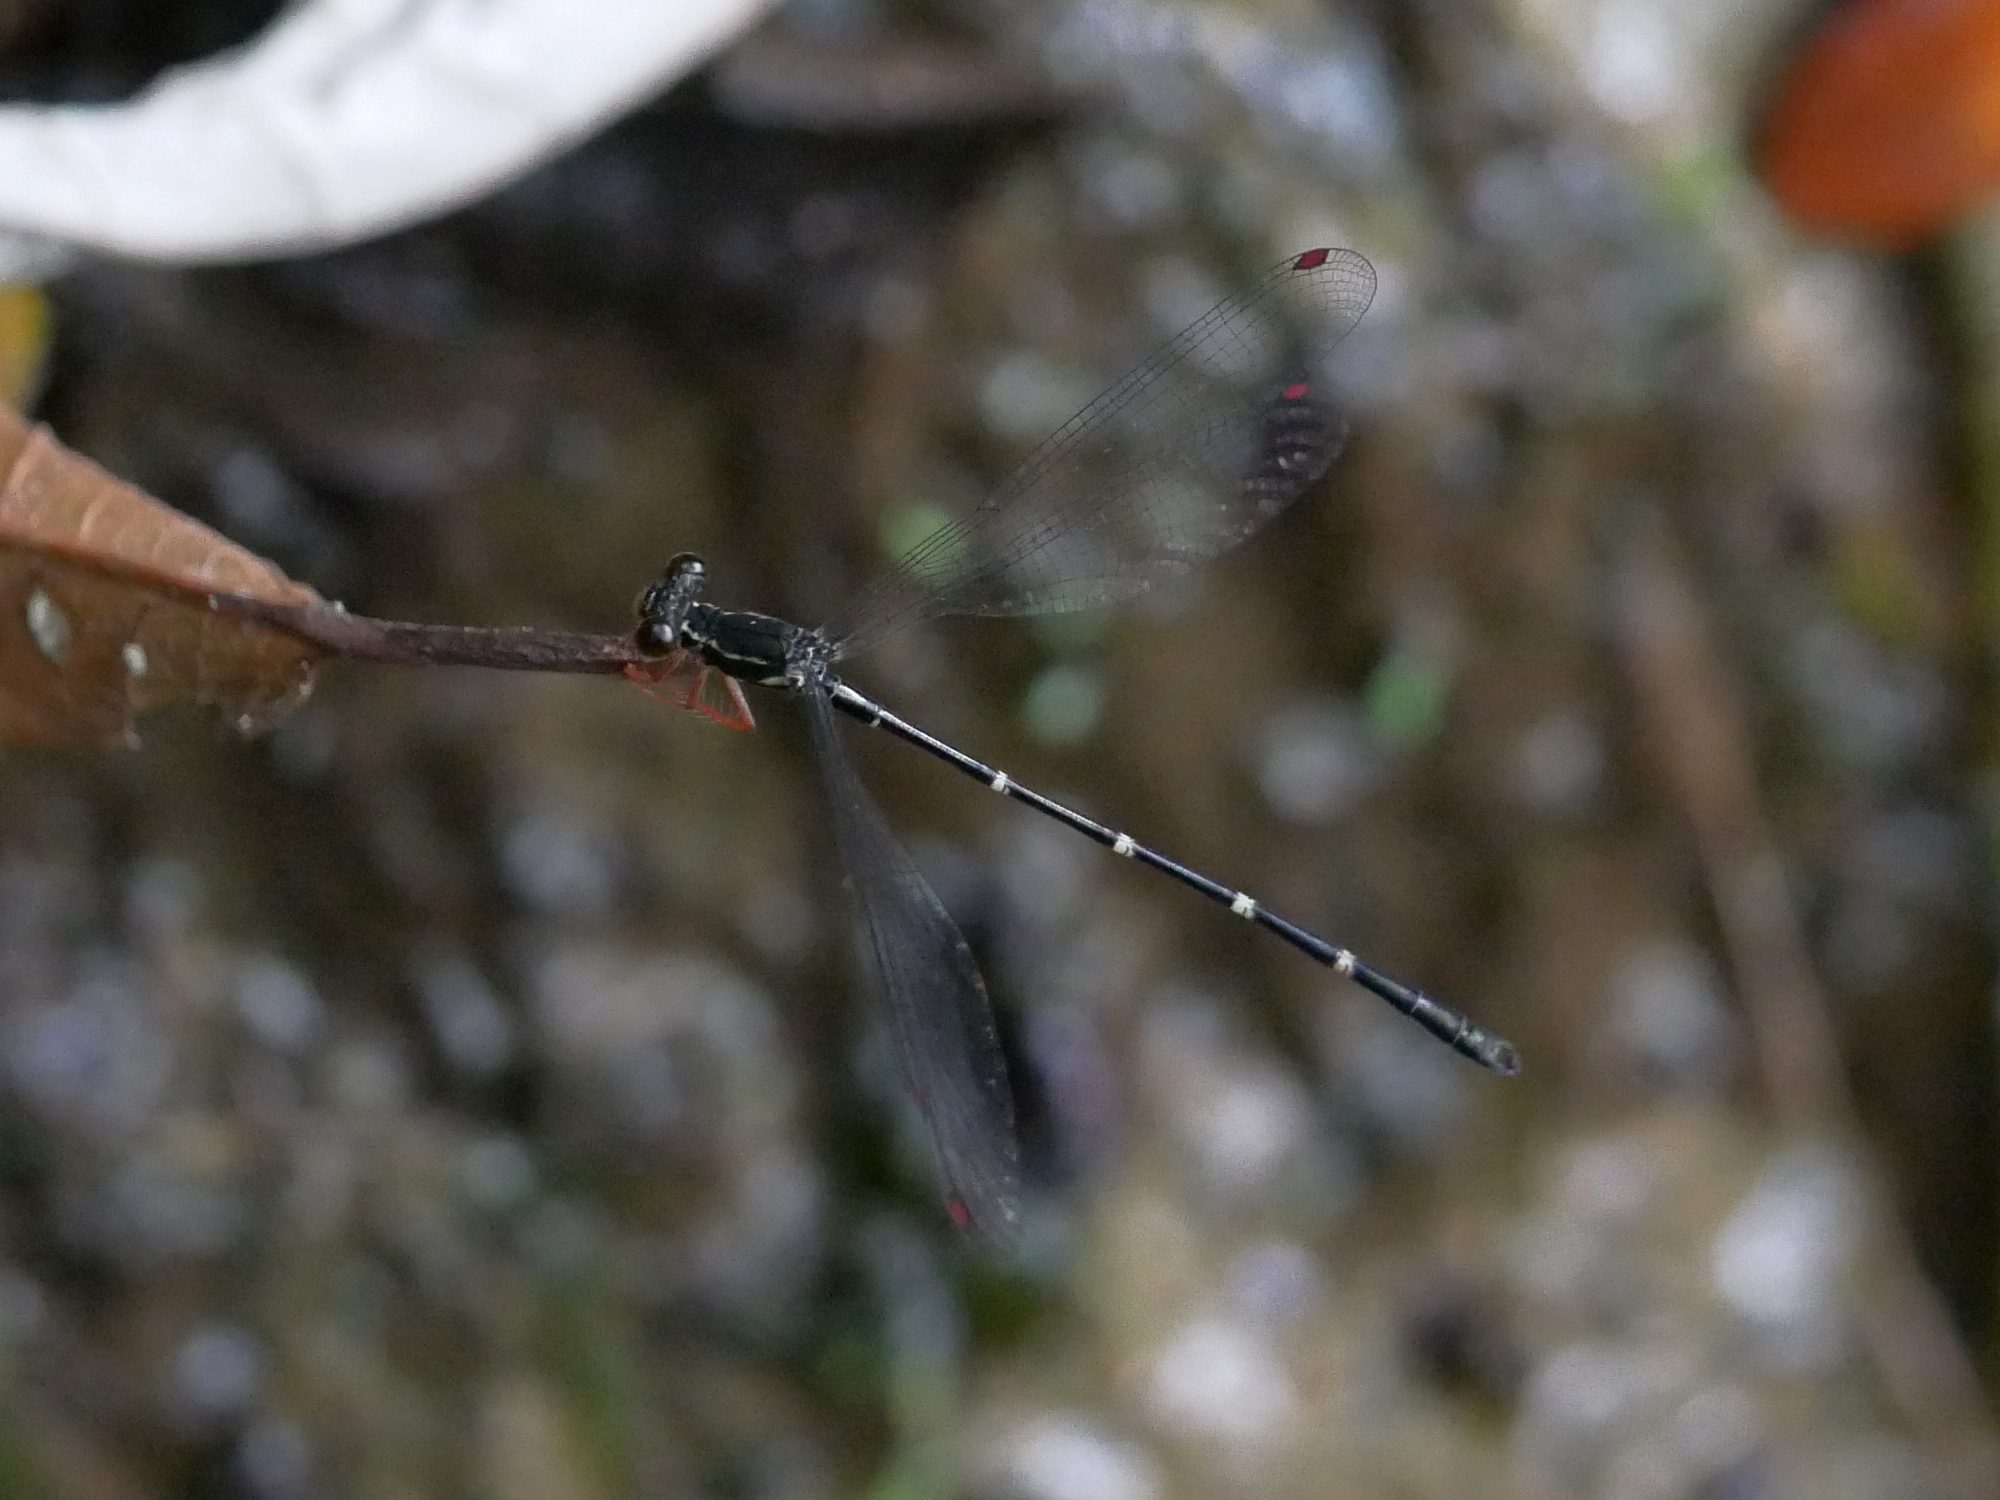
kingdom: Animalia
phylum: Arthropoda
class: Insecta
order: Odonata
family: Megapodagrionidae
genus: Rhipidolestes
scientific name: Rhipidolestes aculeatus
